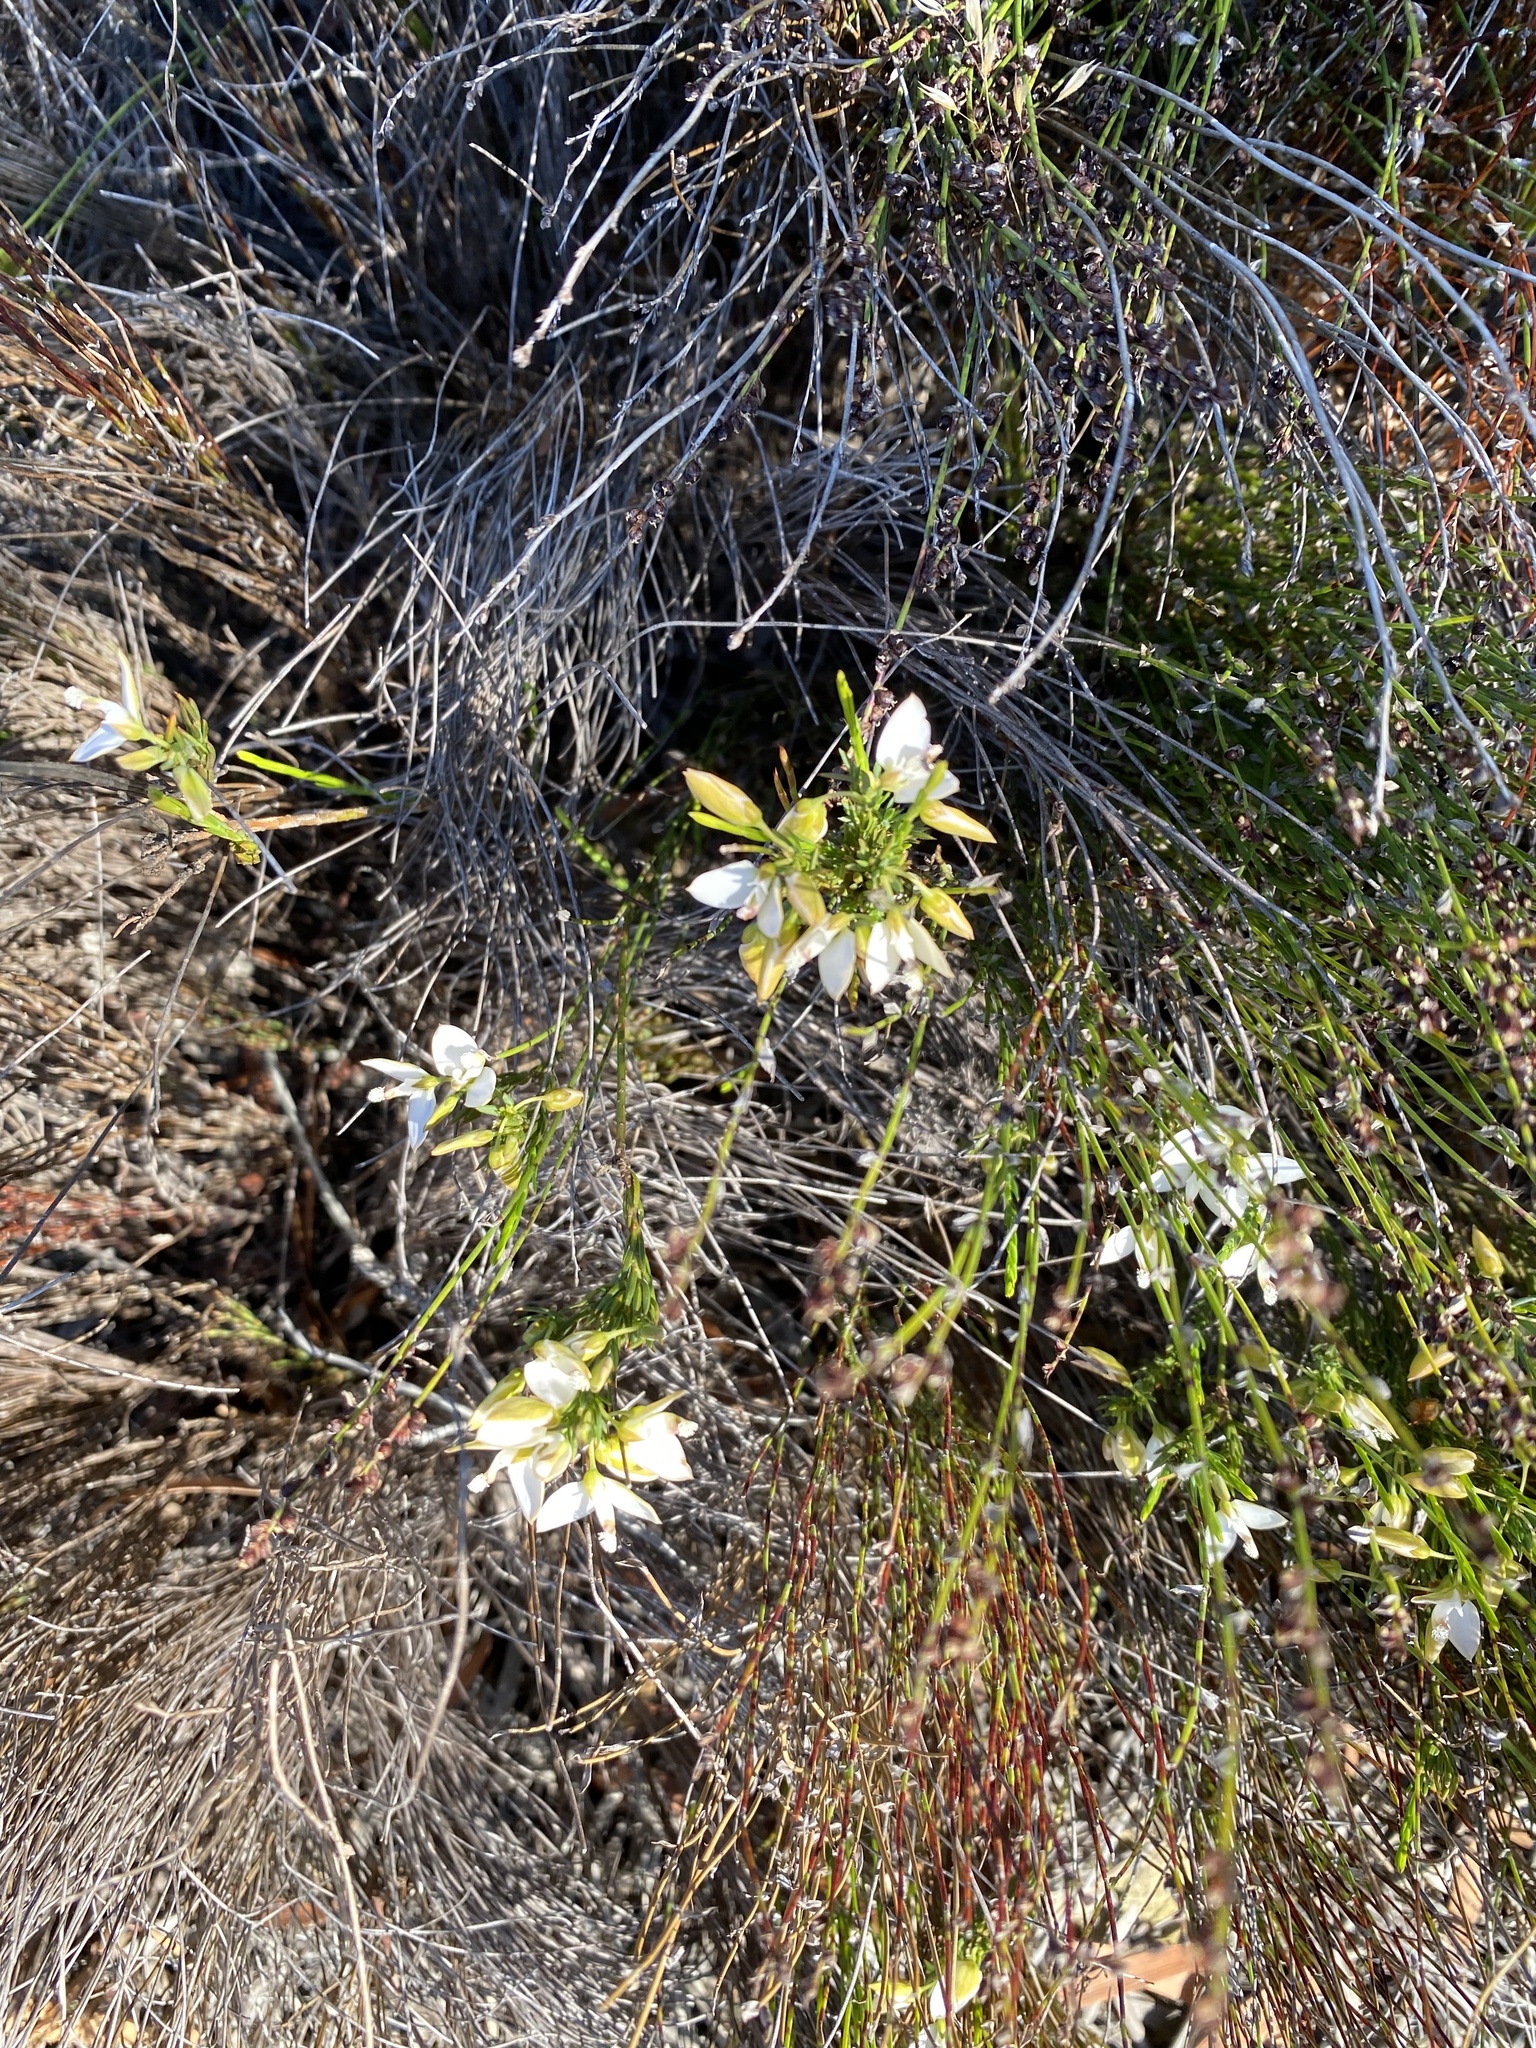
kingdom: Plantae
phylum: Tracheophyta
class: Magnoliopsida
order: Fabales
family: Polygalaceae
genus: Polygala
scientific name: Polygala levynsiana
